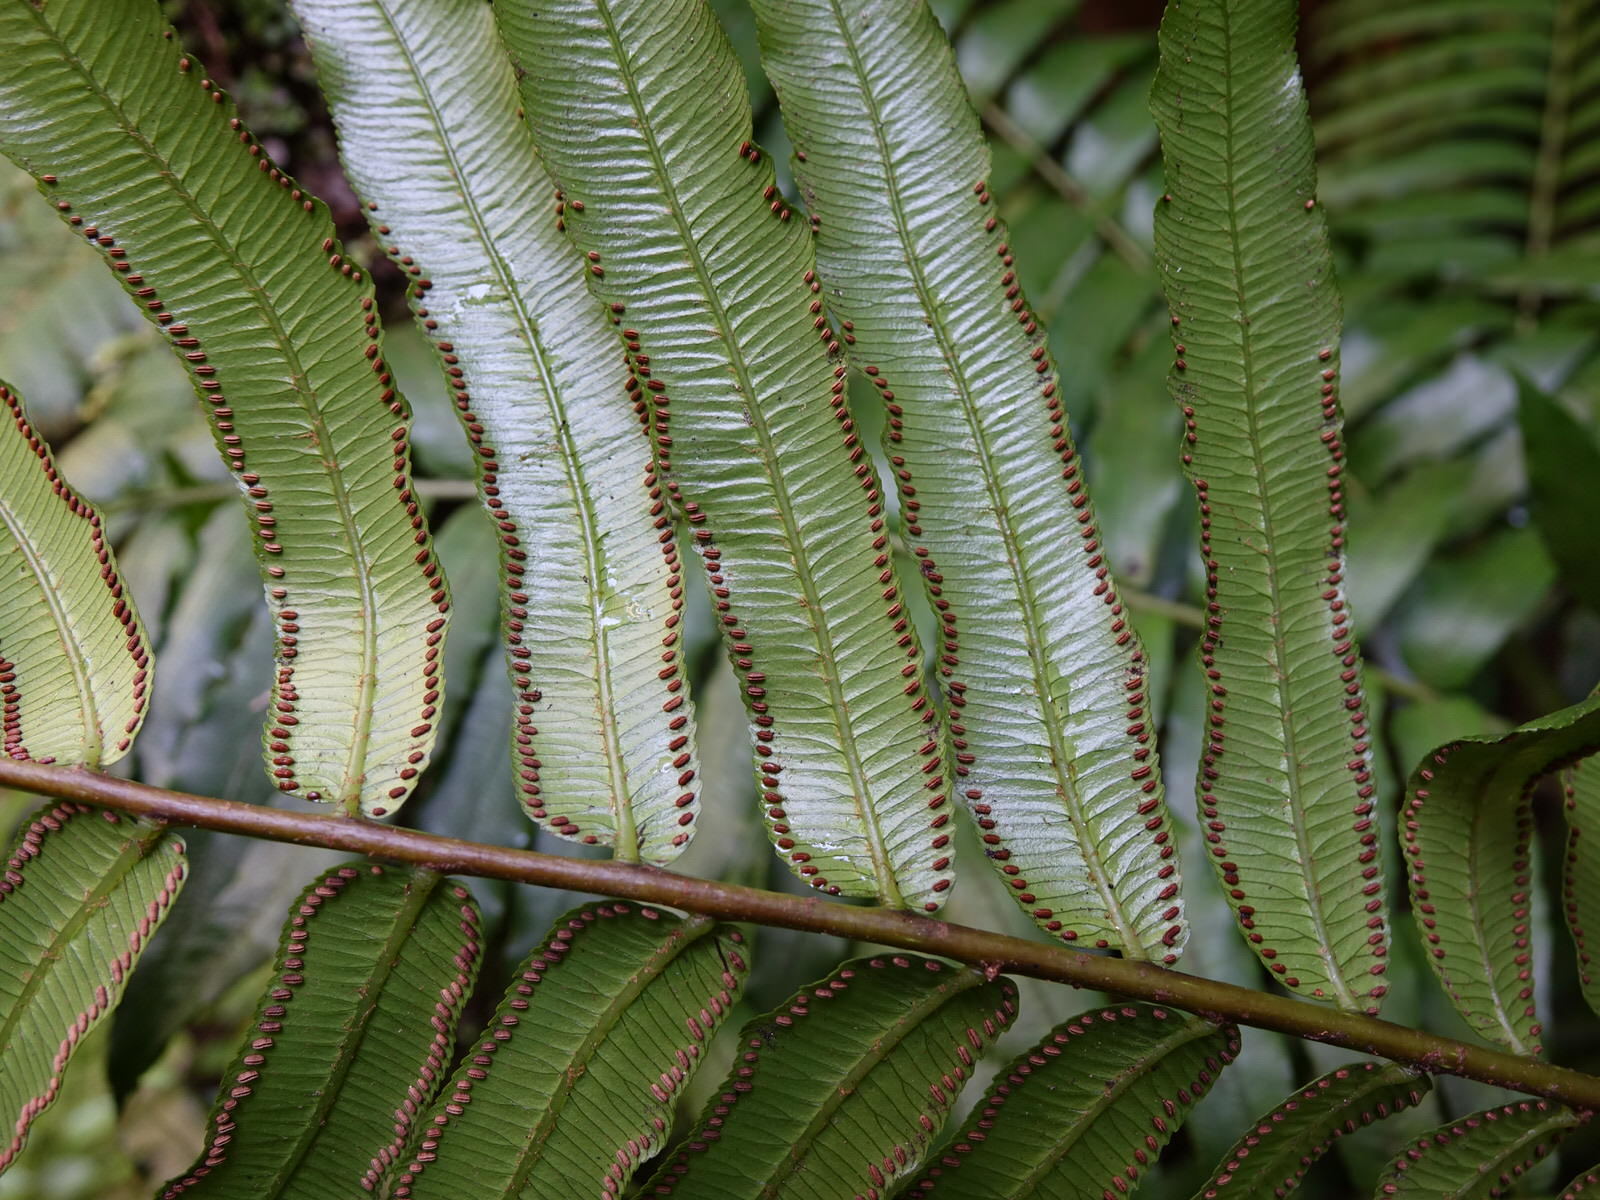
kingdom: Plantae
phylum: Tracheophyta
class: Polypodiopsida
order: Marattiales
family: Marattiaceae
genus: Ptisana
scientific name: Ptisana salicina
